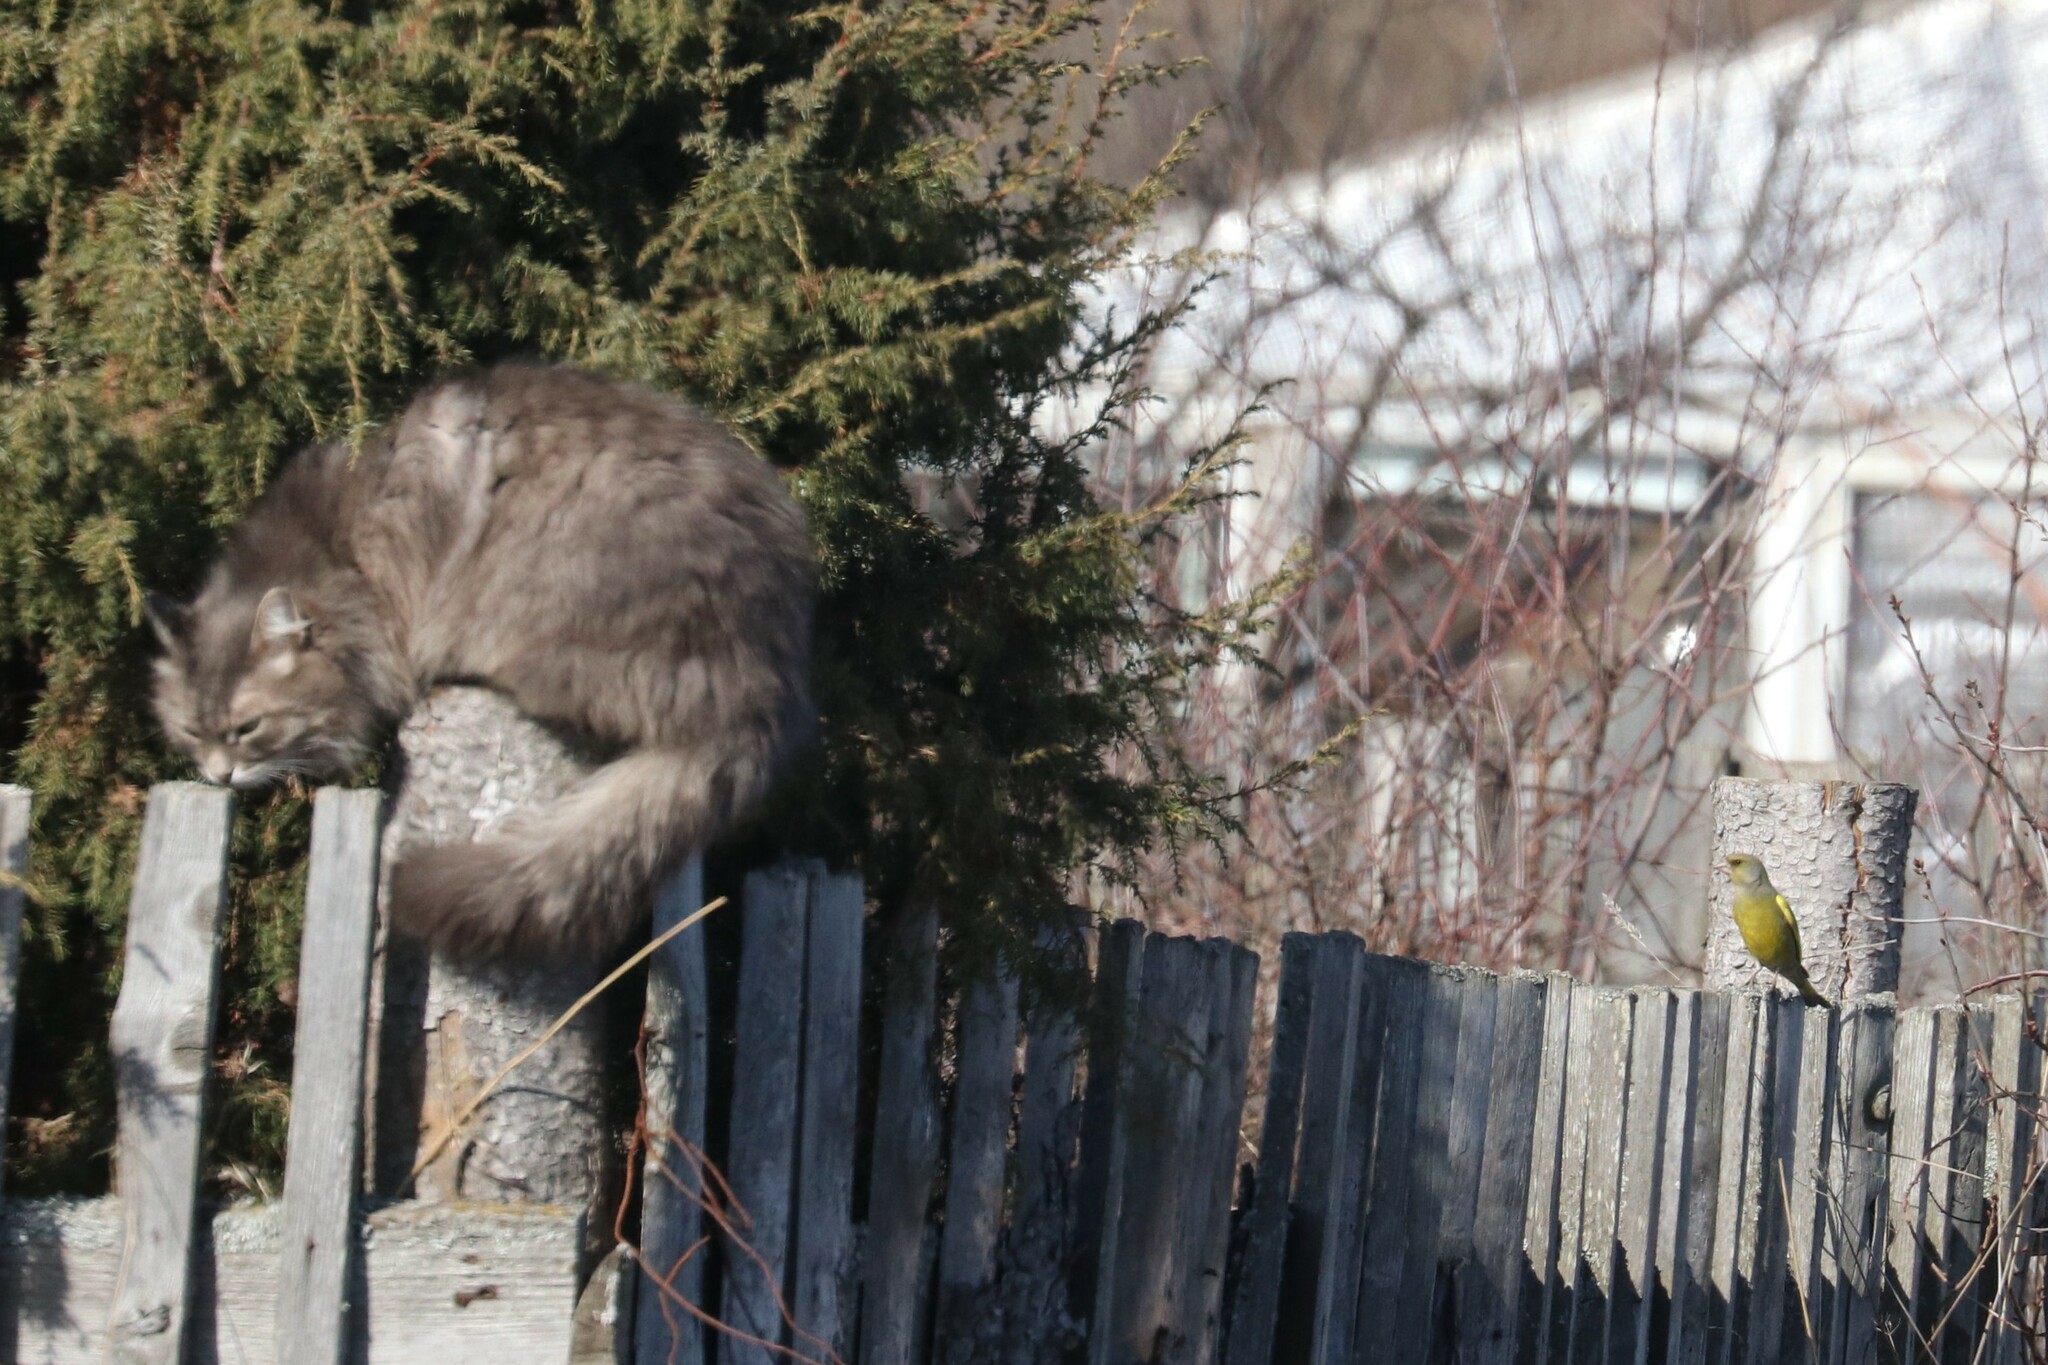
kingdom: Plantae
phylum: Tracheophyta
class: Liliopsida
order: Poales
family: Poaceae
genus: Chloris
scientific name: Chloris chloris
